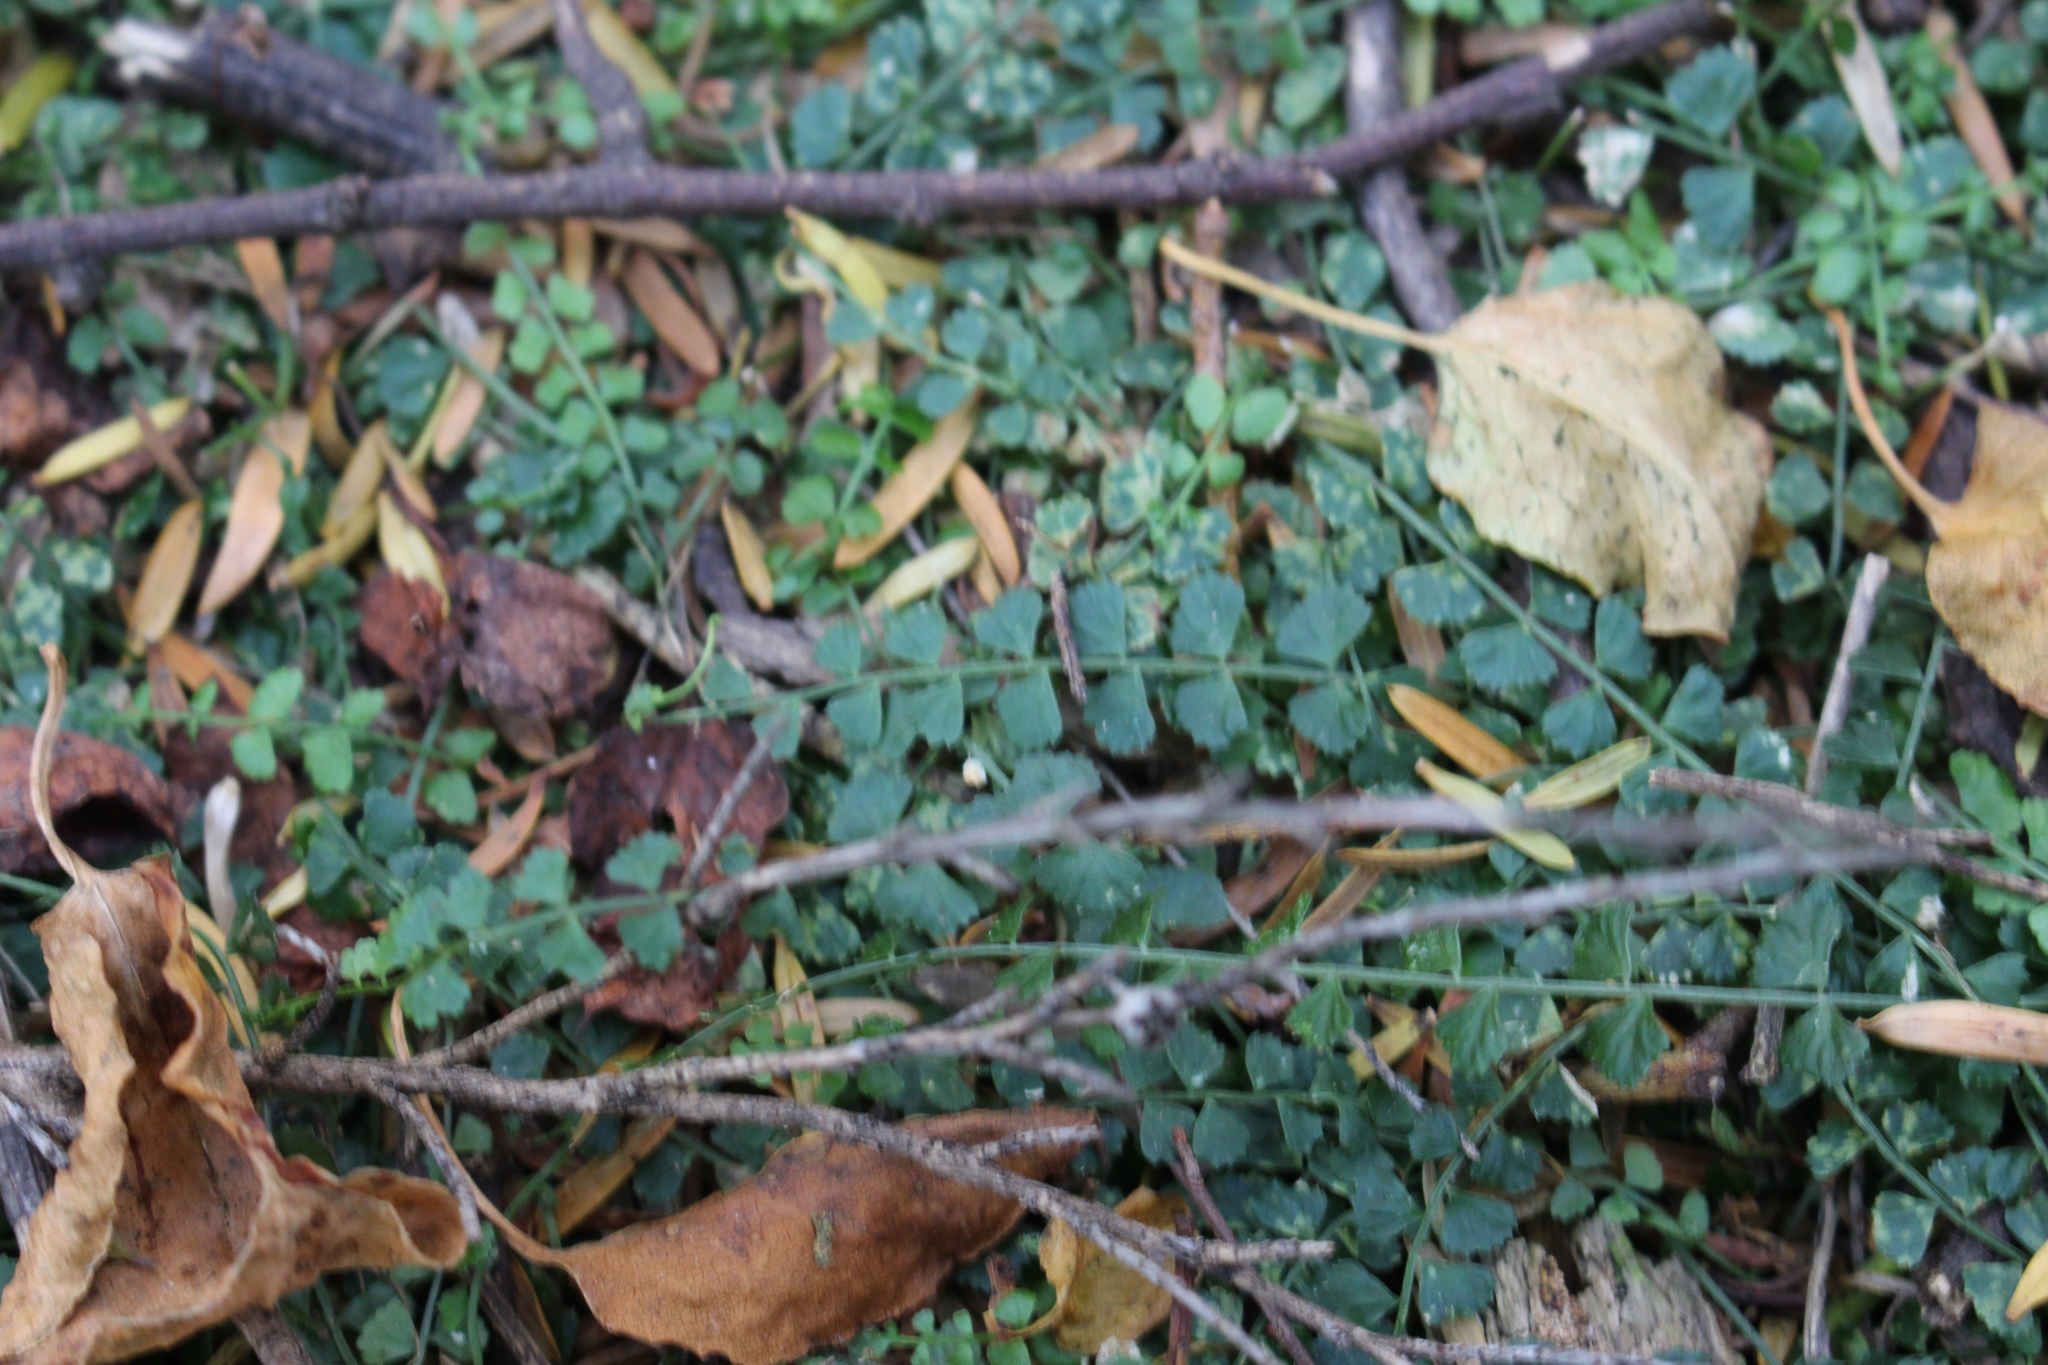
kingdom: Plantae
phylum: Tracheophyta
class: Polypodiopsida
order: Polypodiales
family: Aspleniaceae
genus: Asplenium
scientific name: Asplenium flabellifolium
